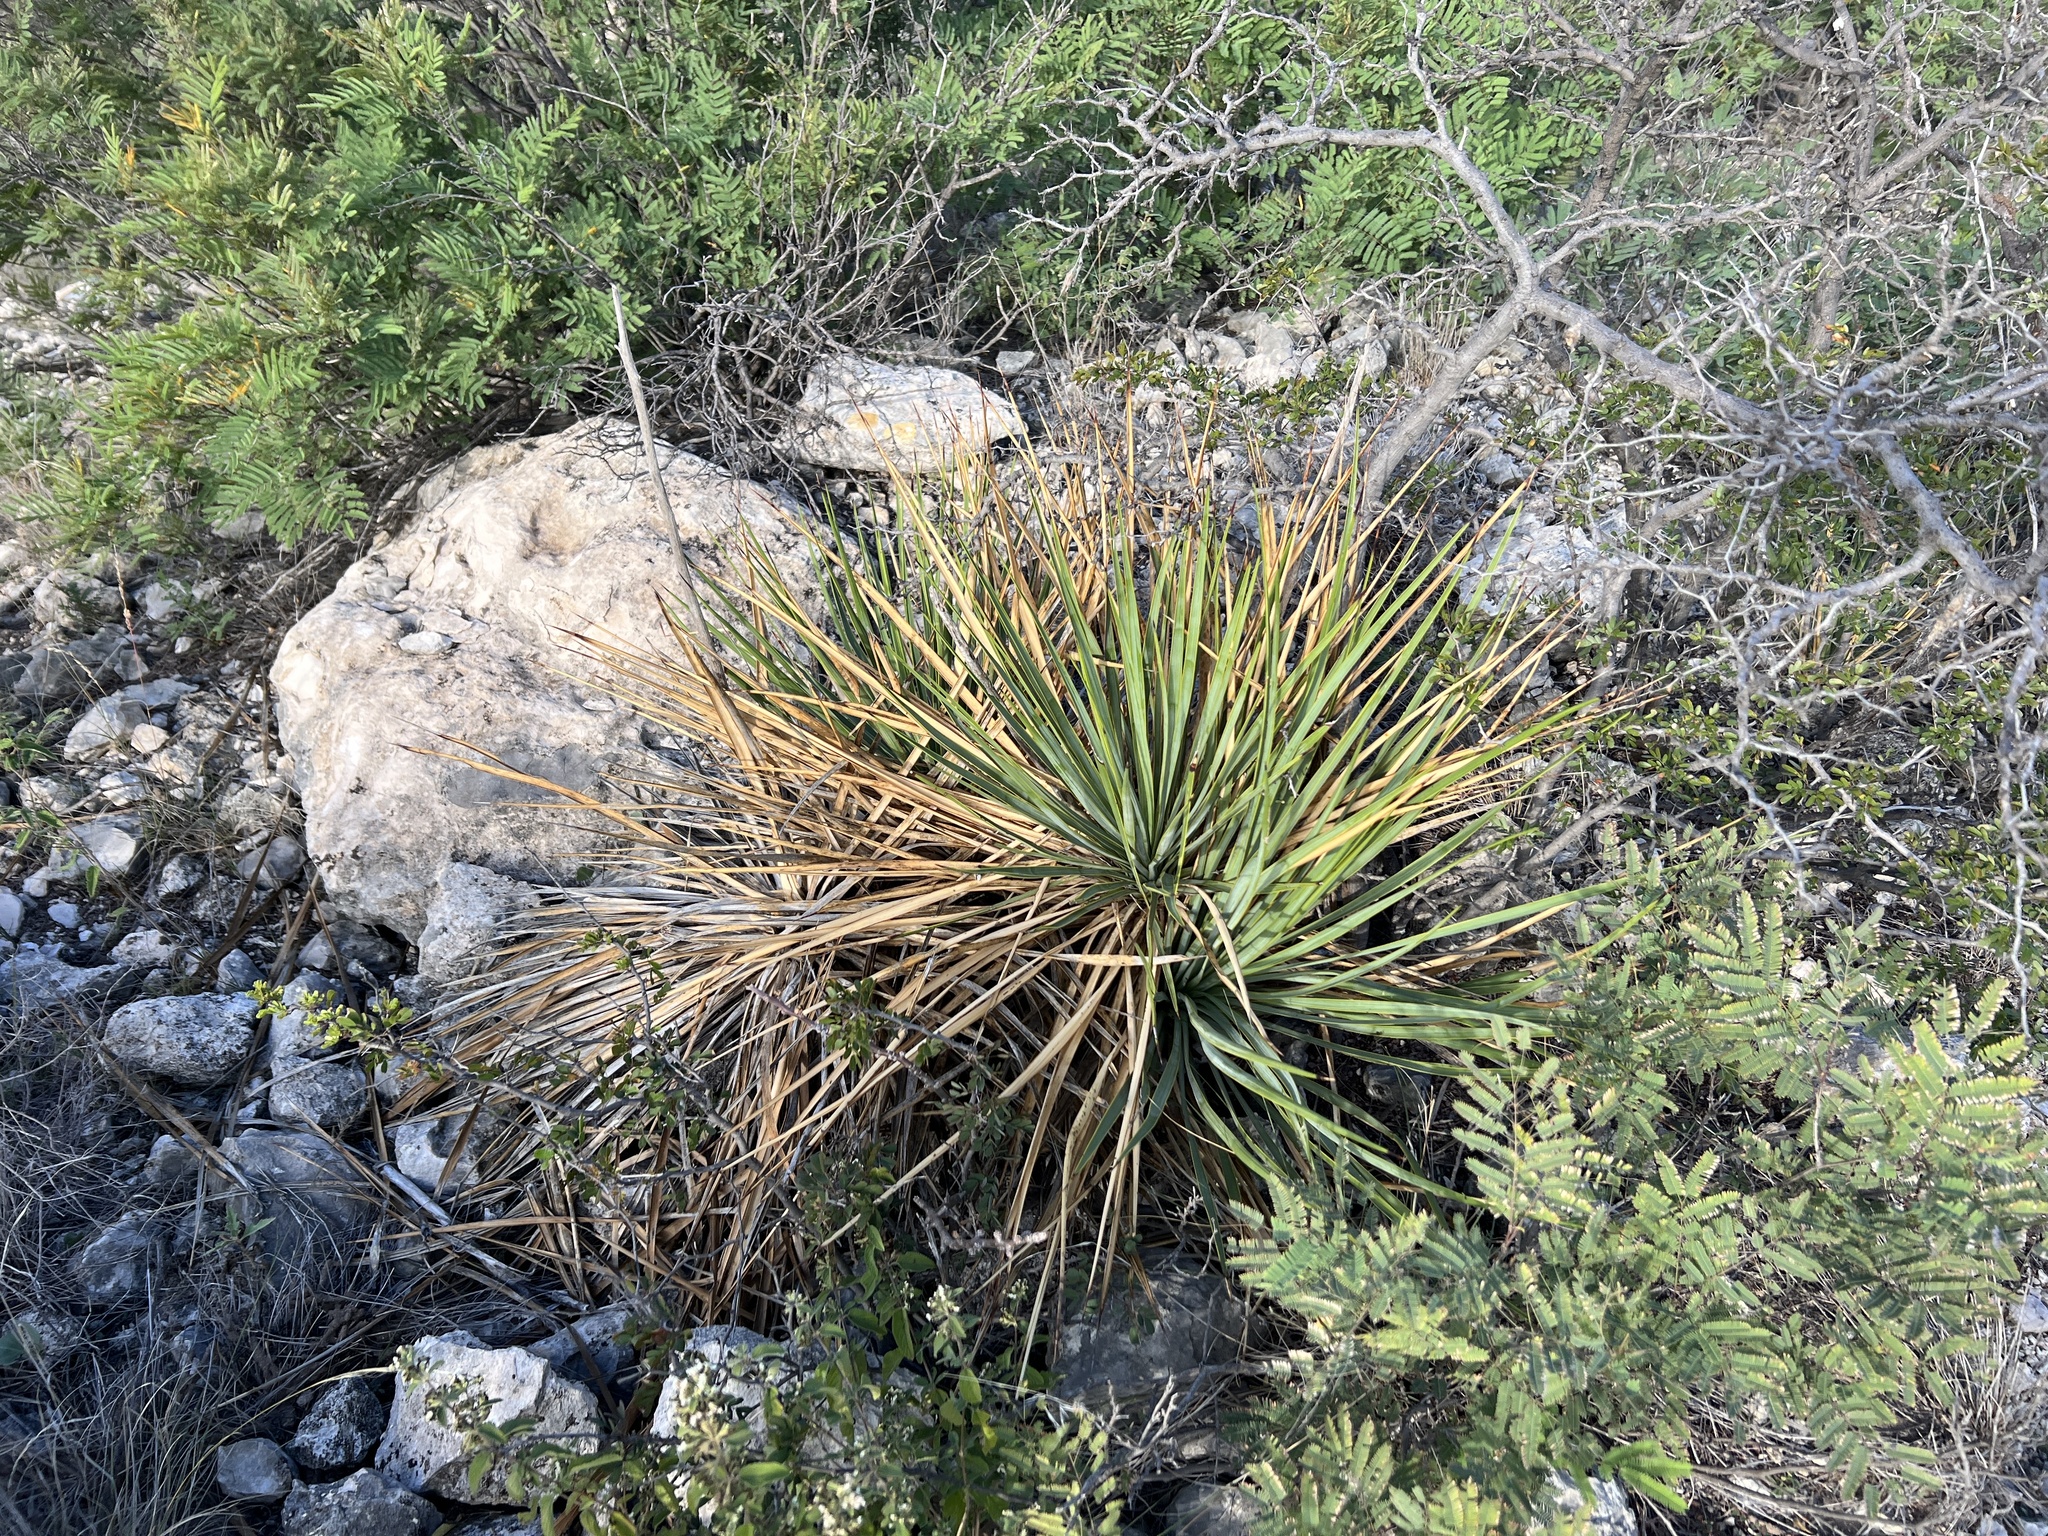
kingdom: Plantae
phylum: Tracheophyta
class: Liliopsida
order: Asparagales
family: Asparagaceae
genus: Yucca
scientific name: Yucca reverchonii
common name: San angelo yucca
